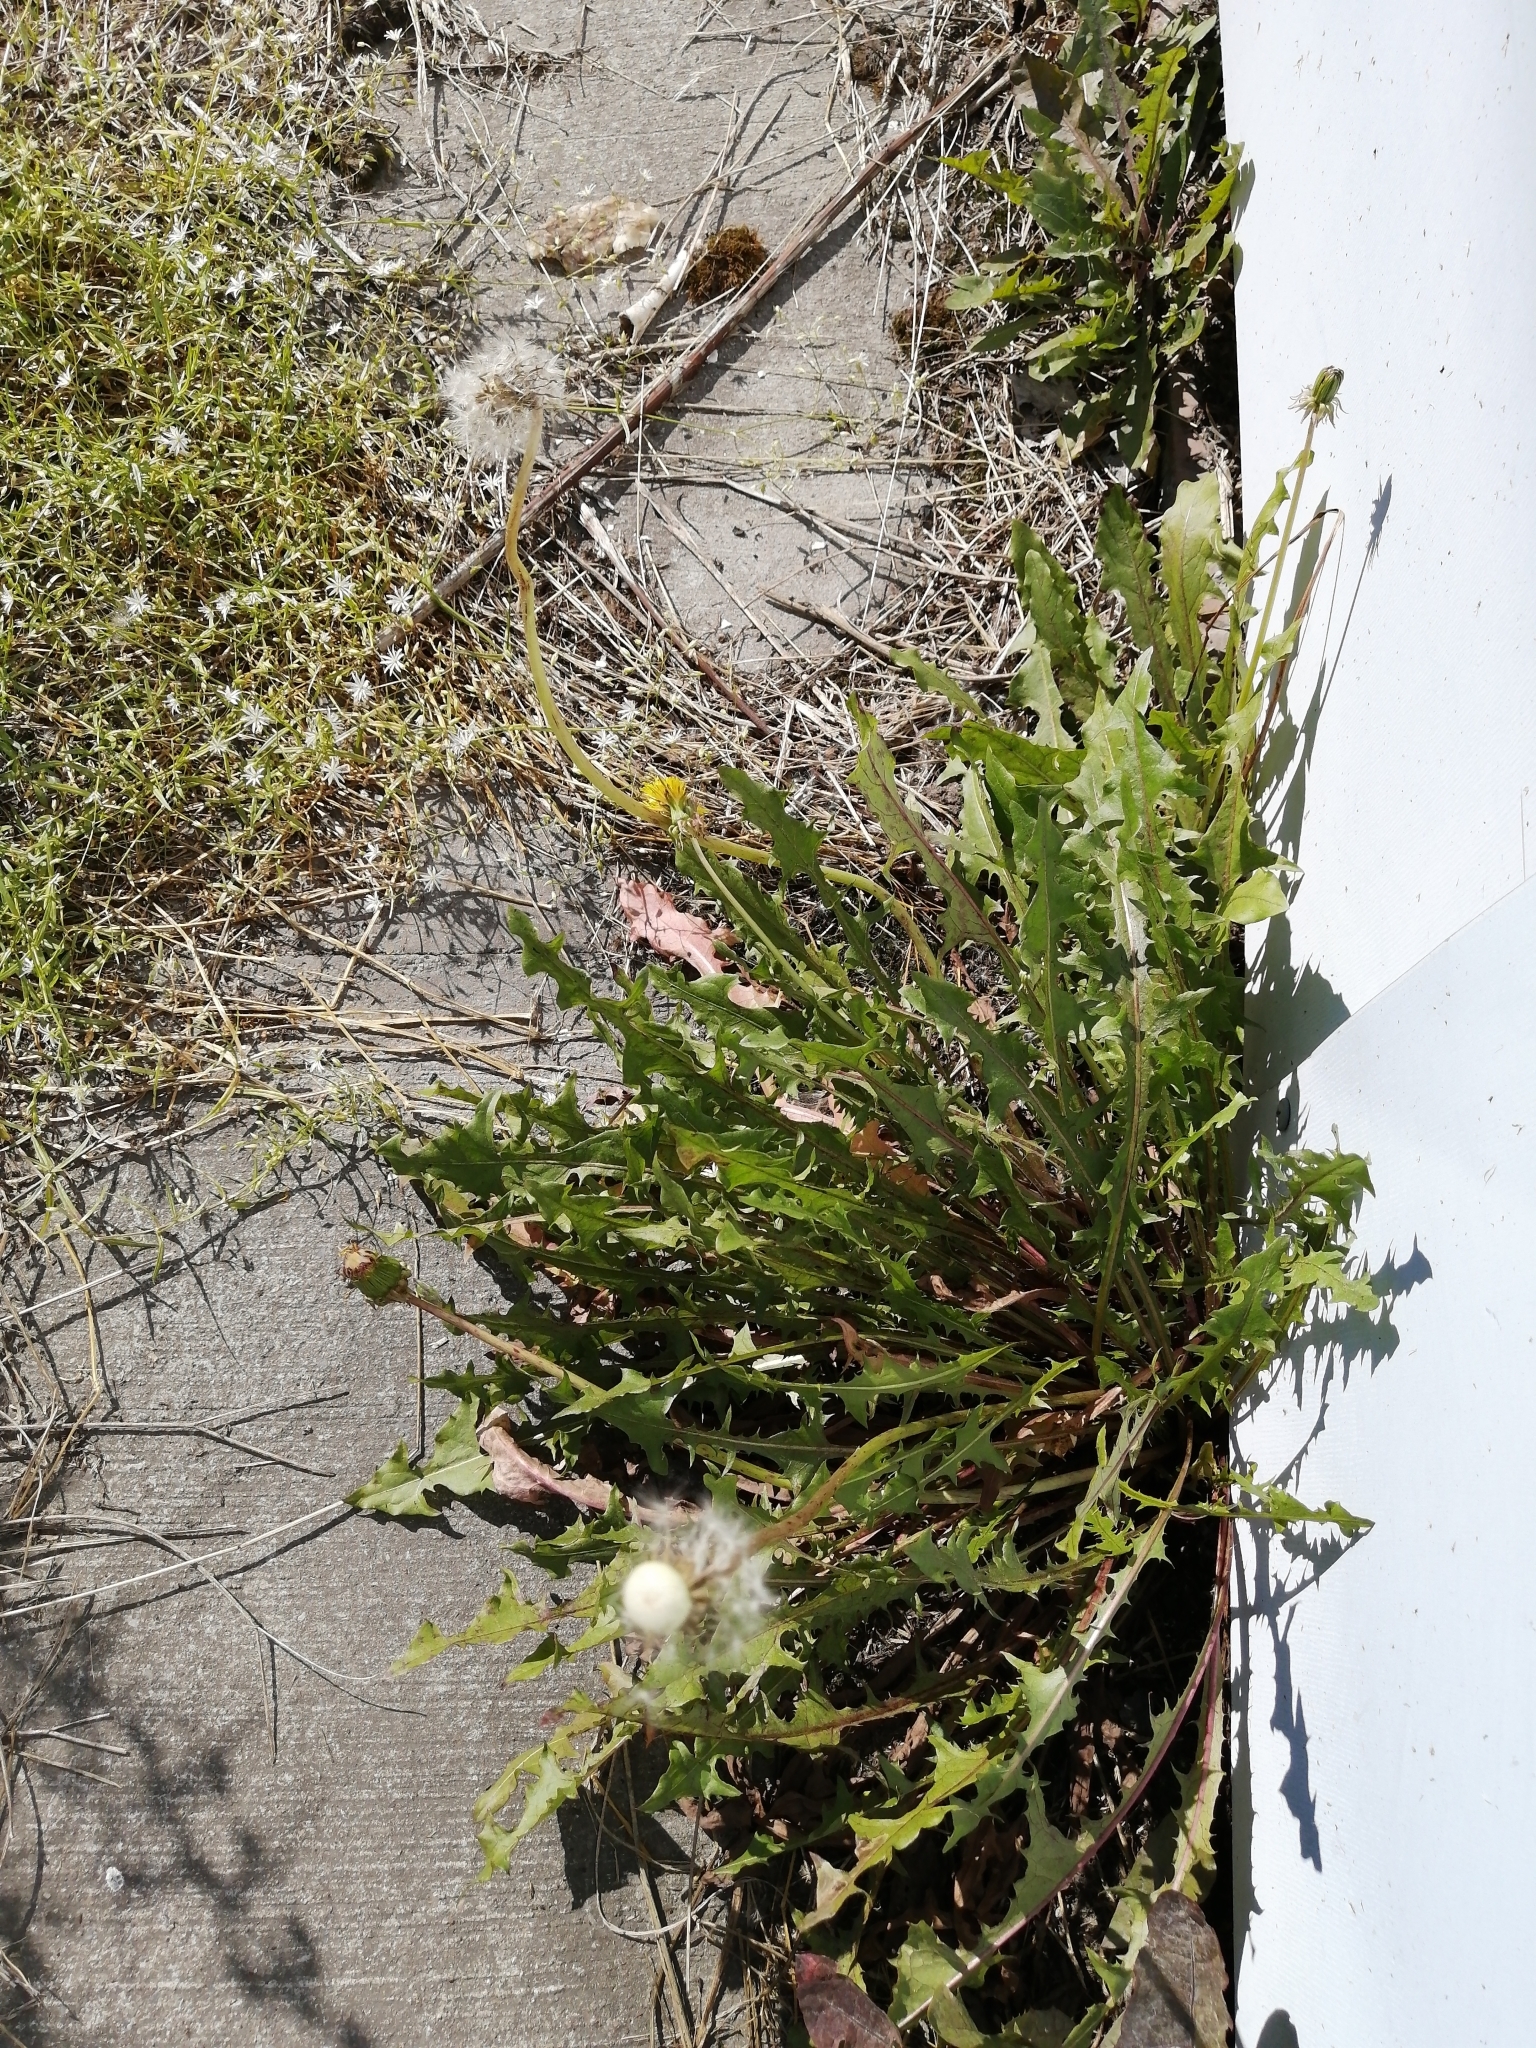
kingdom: Plantae
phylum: Tracheophyta
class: Magnoliopsida
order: Asterales
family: Asteraceae
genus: Taraxacum
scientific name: Taraxacum officinale
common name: Common dandelion
